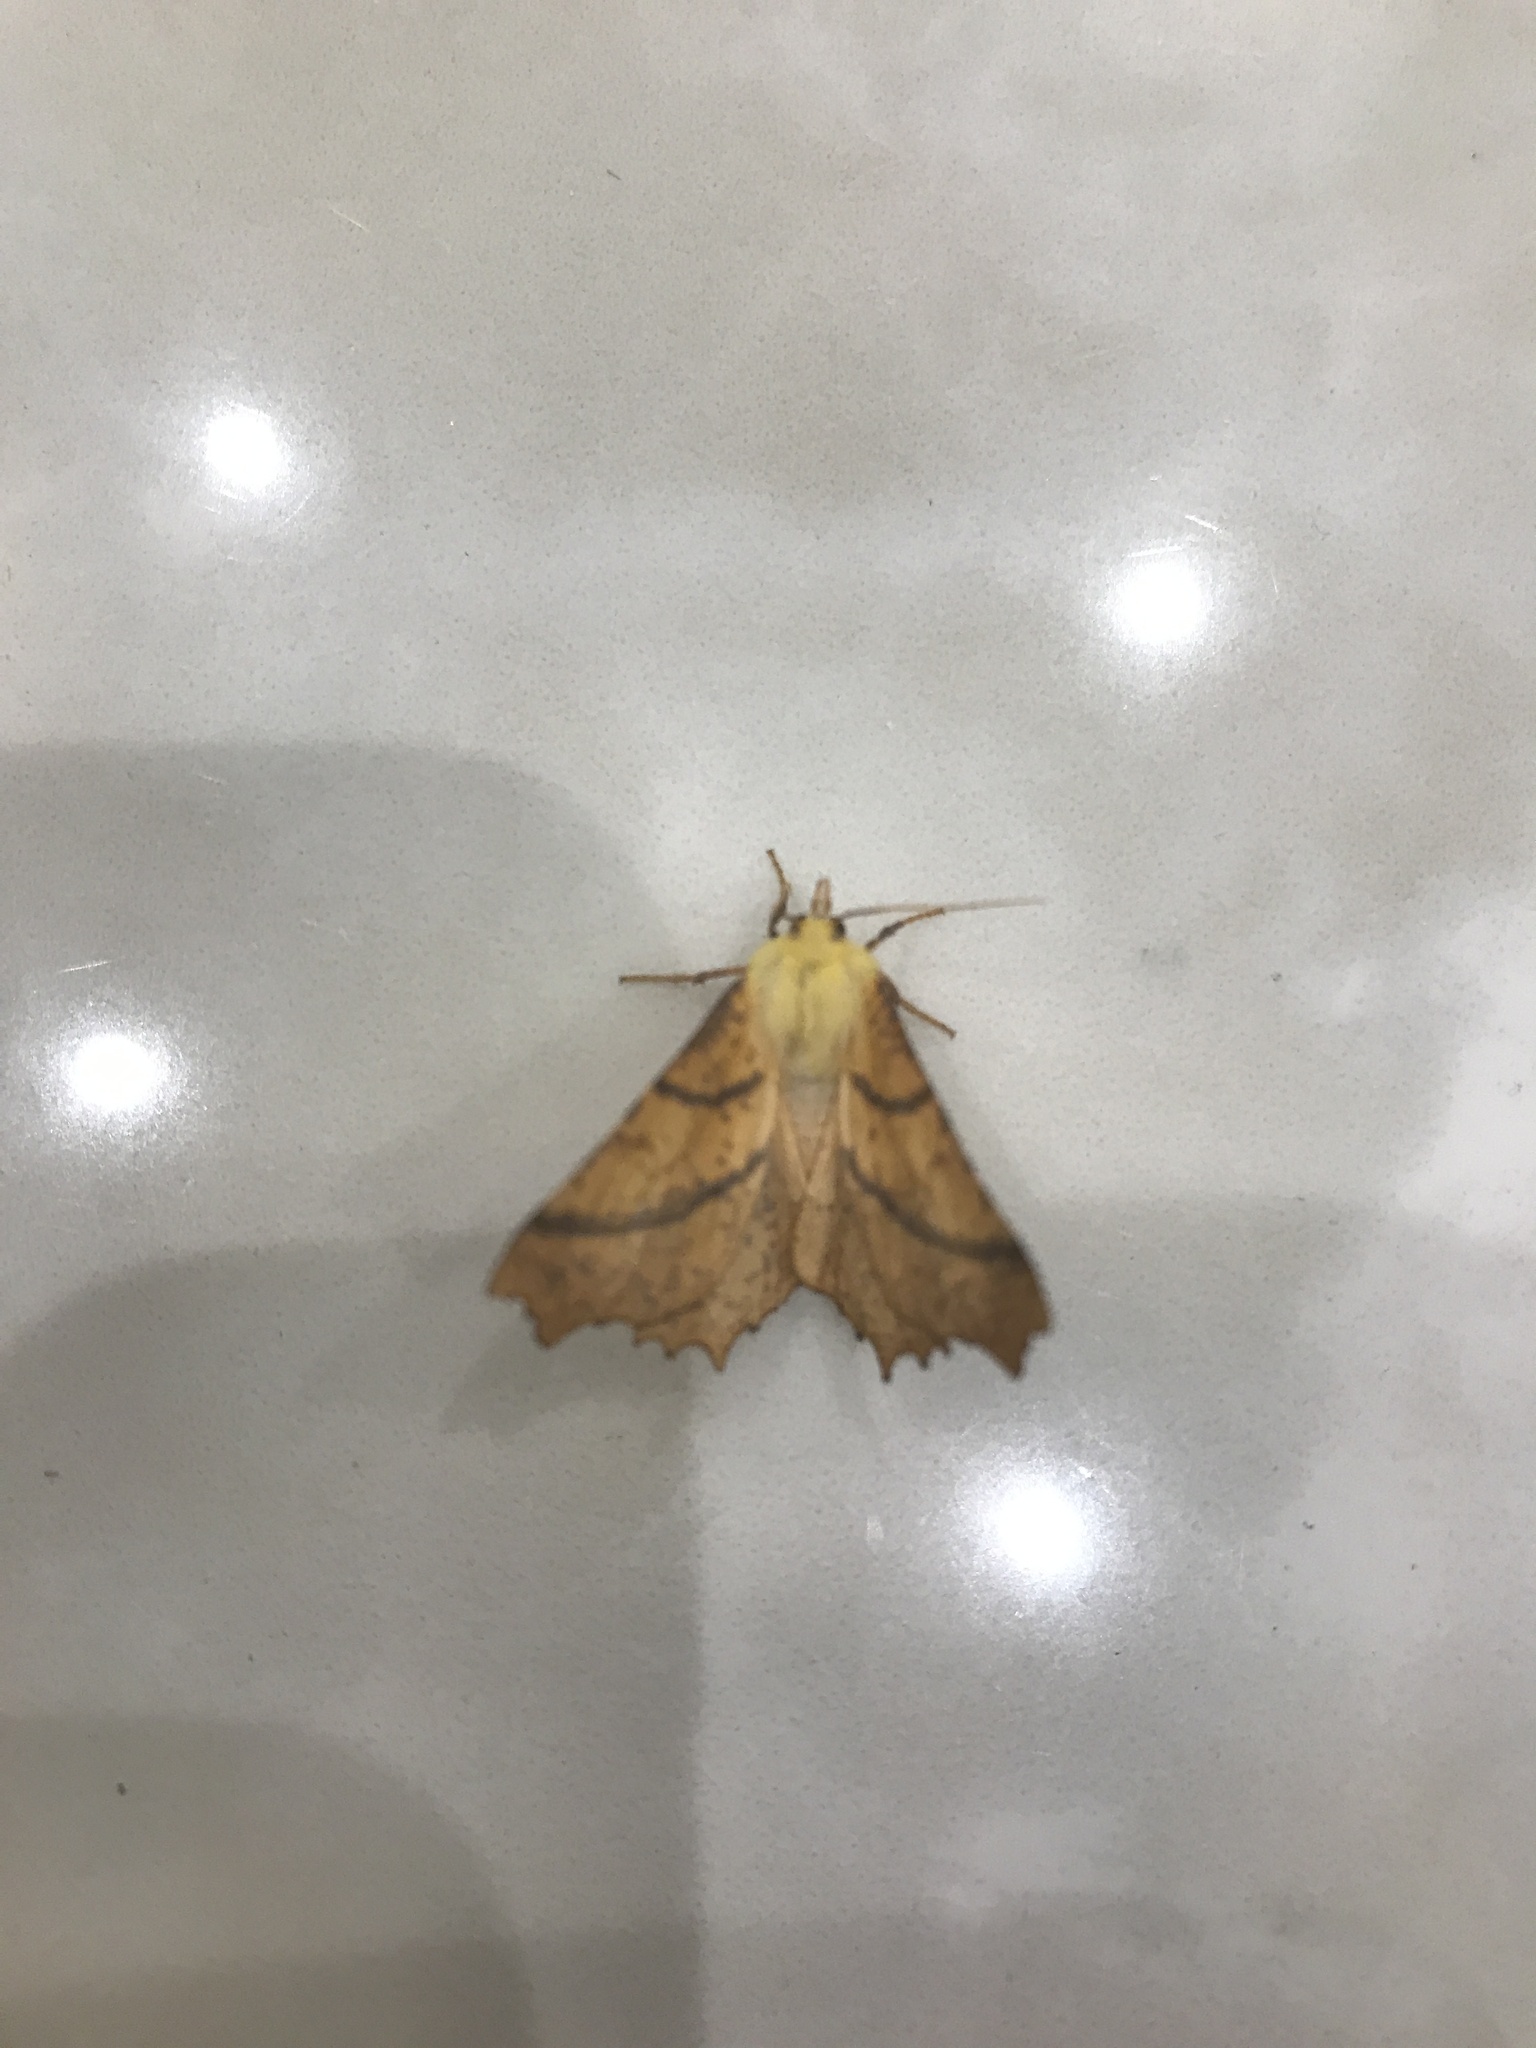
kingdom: Animalia
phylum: Arthropoda
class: Insecta
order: Lepidoptera
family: Geometridae
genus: Ennomos
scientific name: Ennomos alniaria
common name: Canary-shouldered thorn
